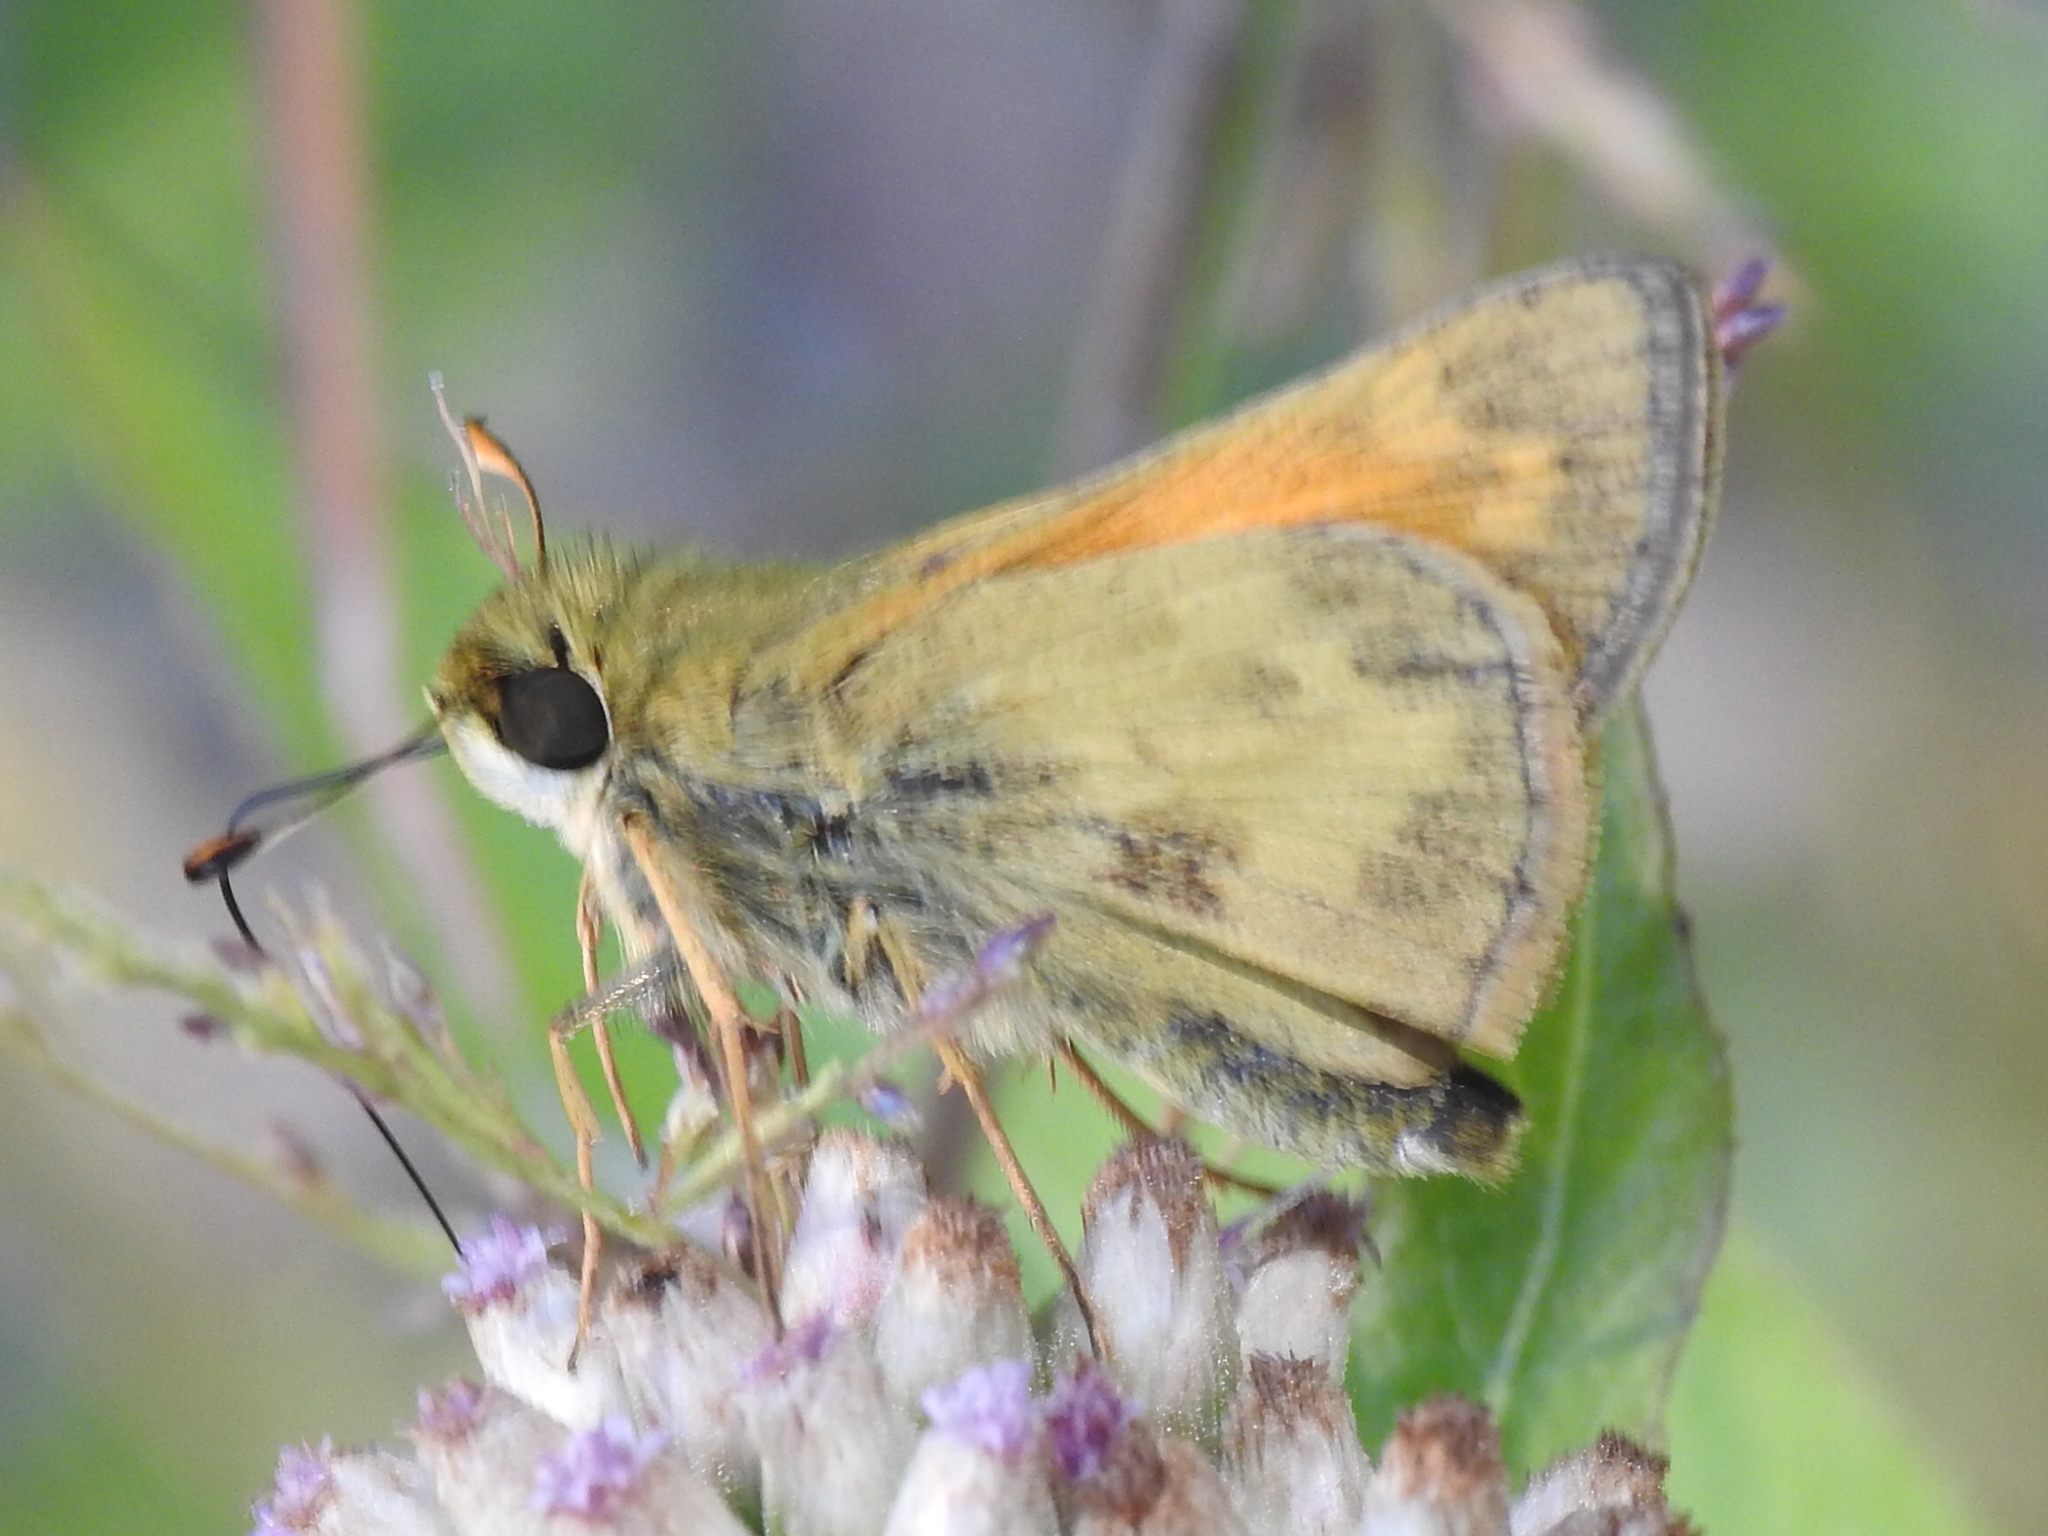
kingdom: Animalia
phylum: Arthropoda
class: Insecta
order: Lepidoptera
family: Hesperiidae
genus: Atalopedes
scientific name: Atalopedes
